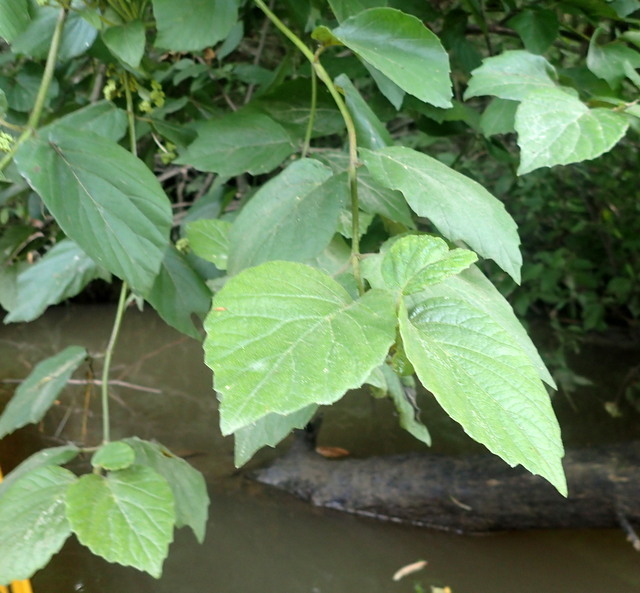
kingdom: Plantae
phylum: Tracheophyta
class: Magnoliopsida
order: Dipsacales
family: Viburnaceae
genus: Viburnum
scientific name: Viburnum scabrellum
